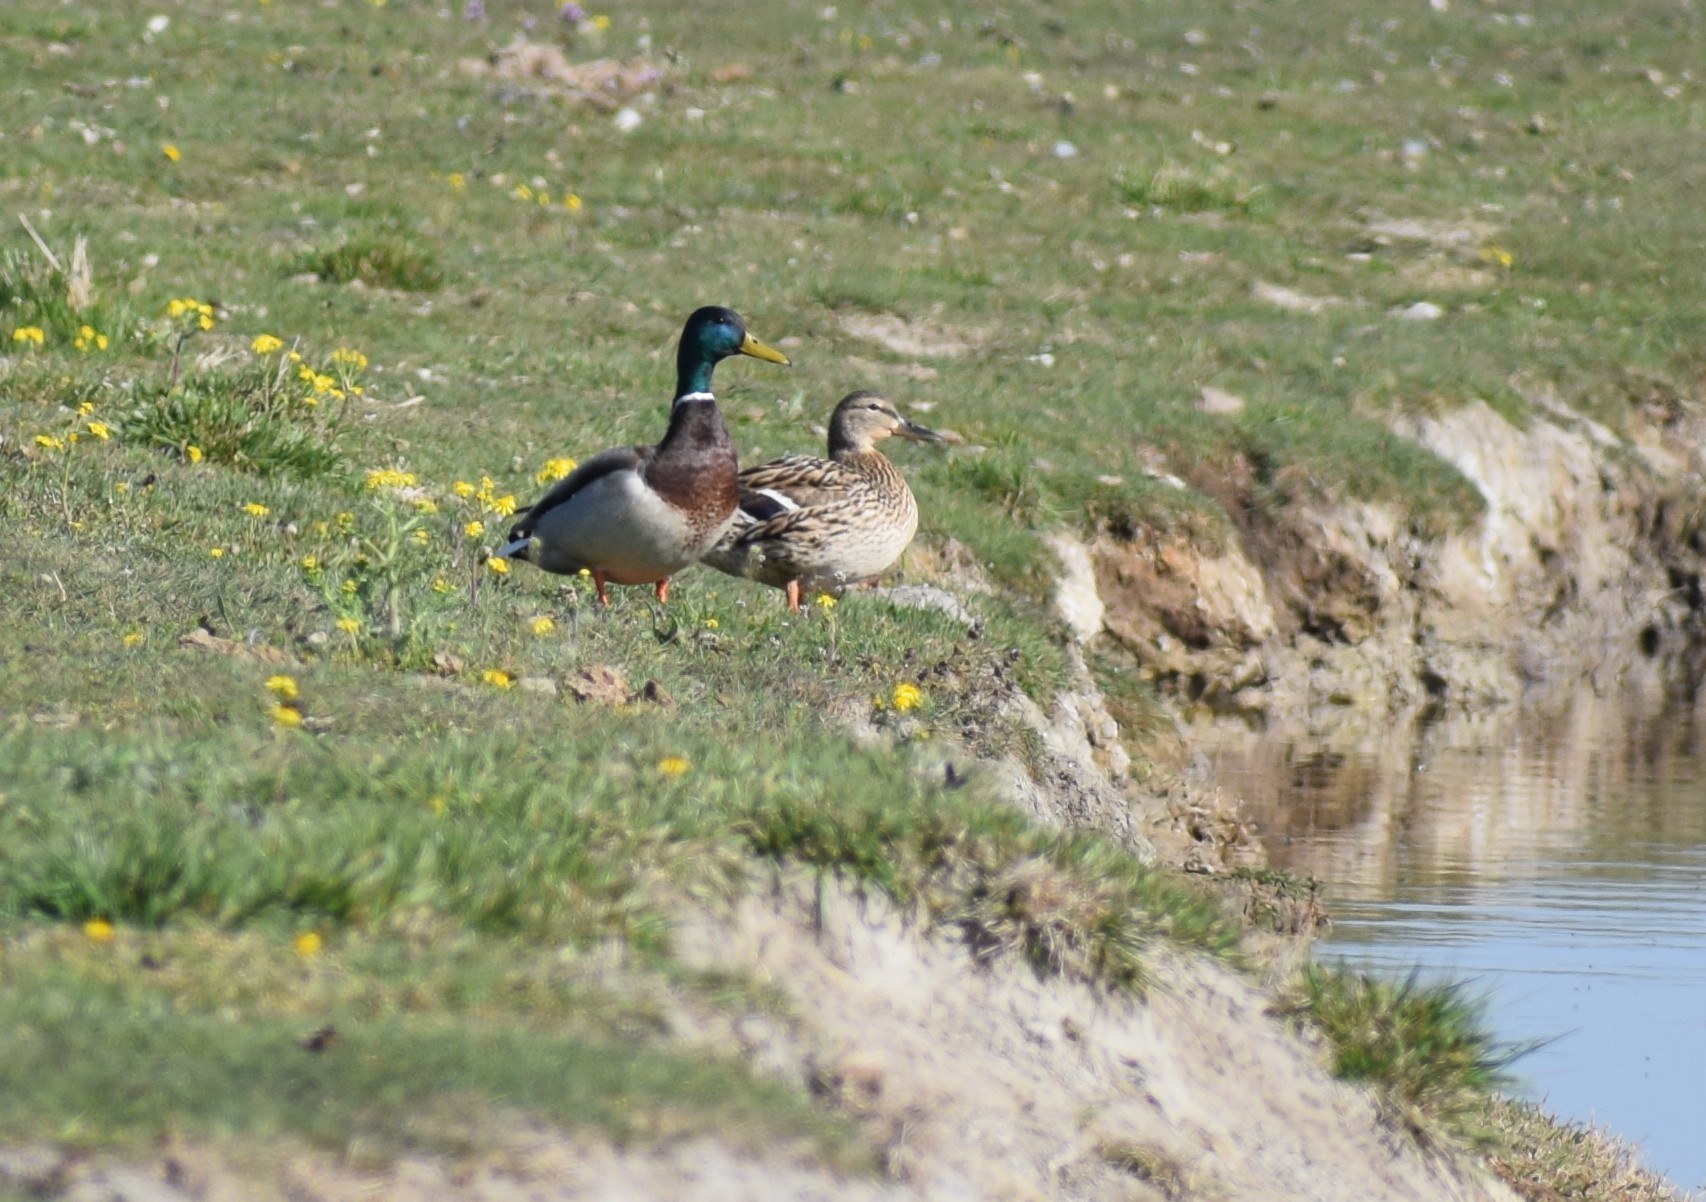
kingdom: Animalia
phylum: Chordata
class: Aves
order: Anseriformes
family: Anatidae
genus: Anas
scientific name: Anas platyrhynchos
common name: Mallard
